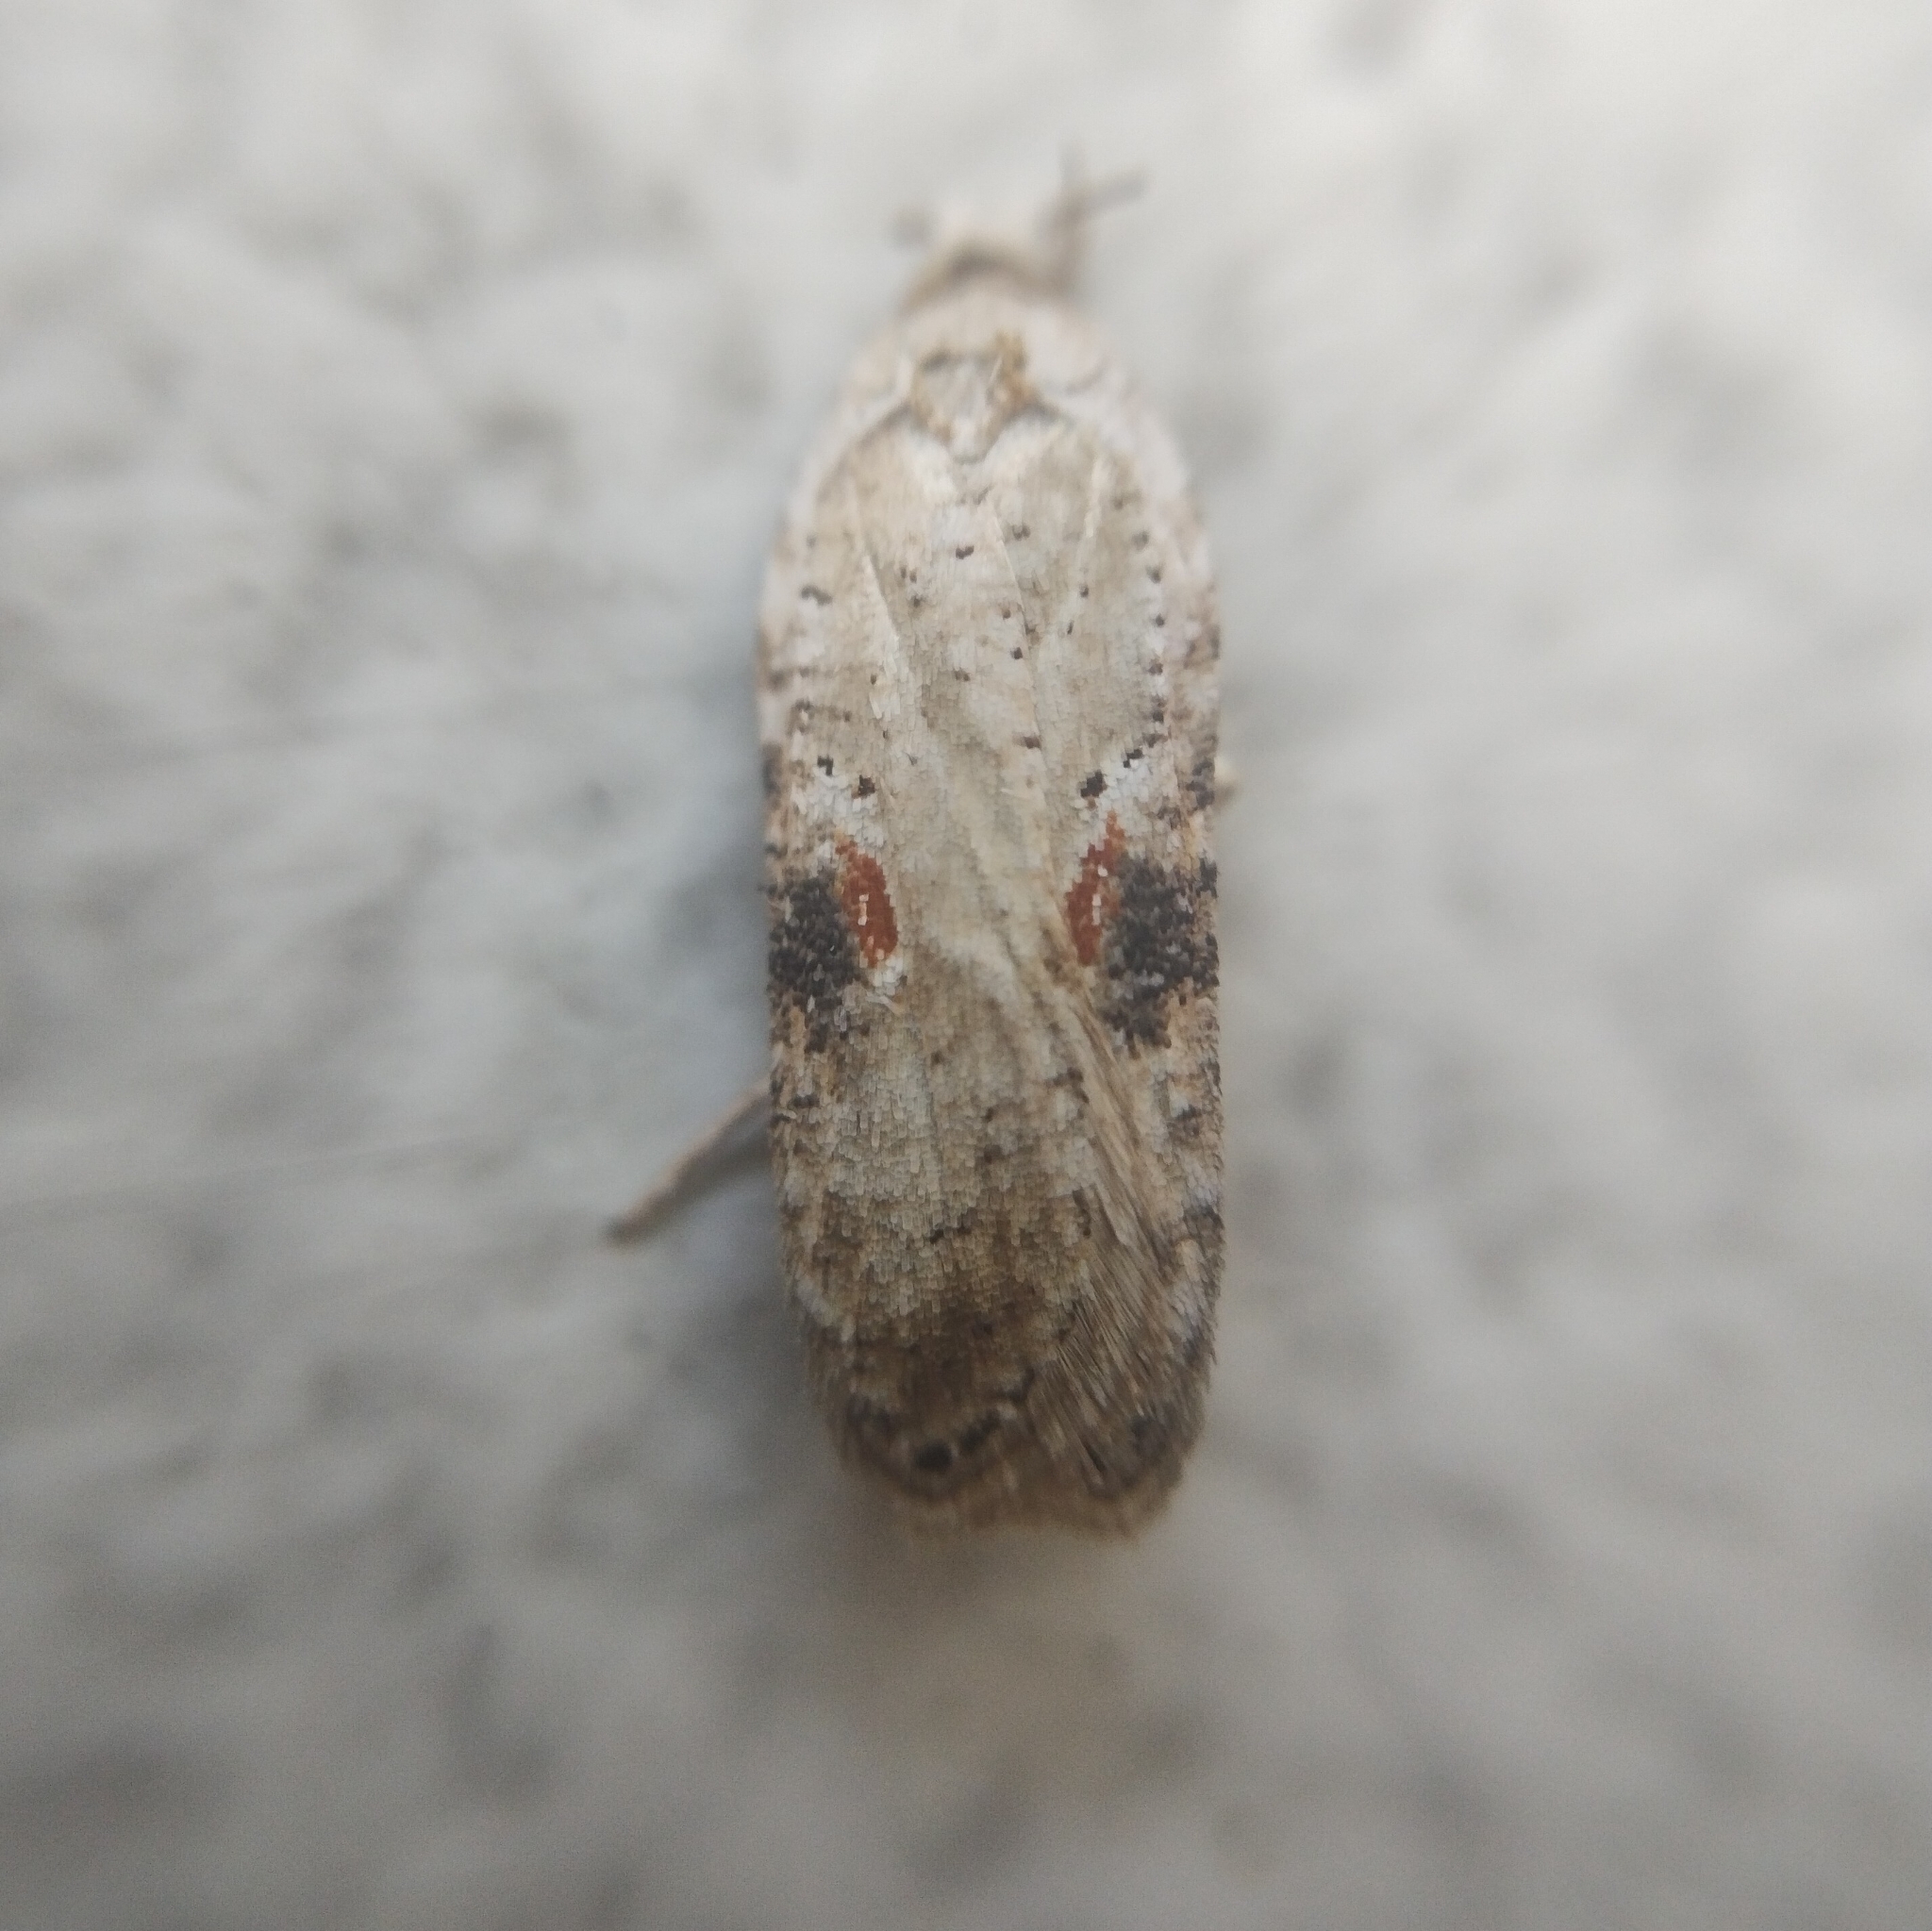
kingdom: Animalia
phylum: Arthropoda
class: Insecta
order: Lepidoptera
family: Depressariidae
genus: Agonopterix
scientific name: Agonopterix alstroemeriana
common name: Moth
